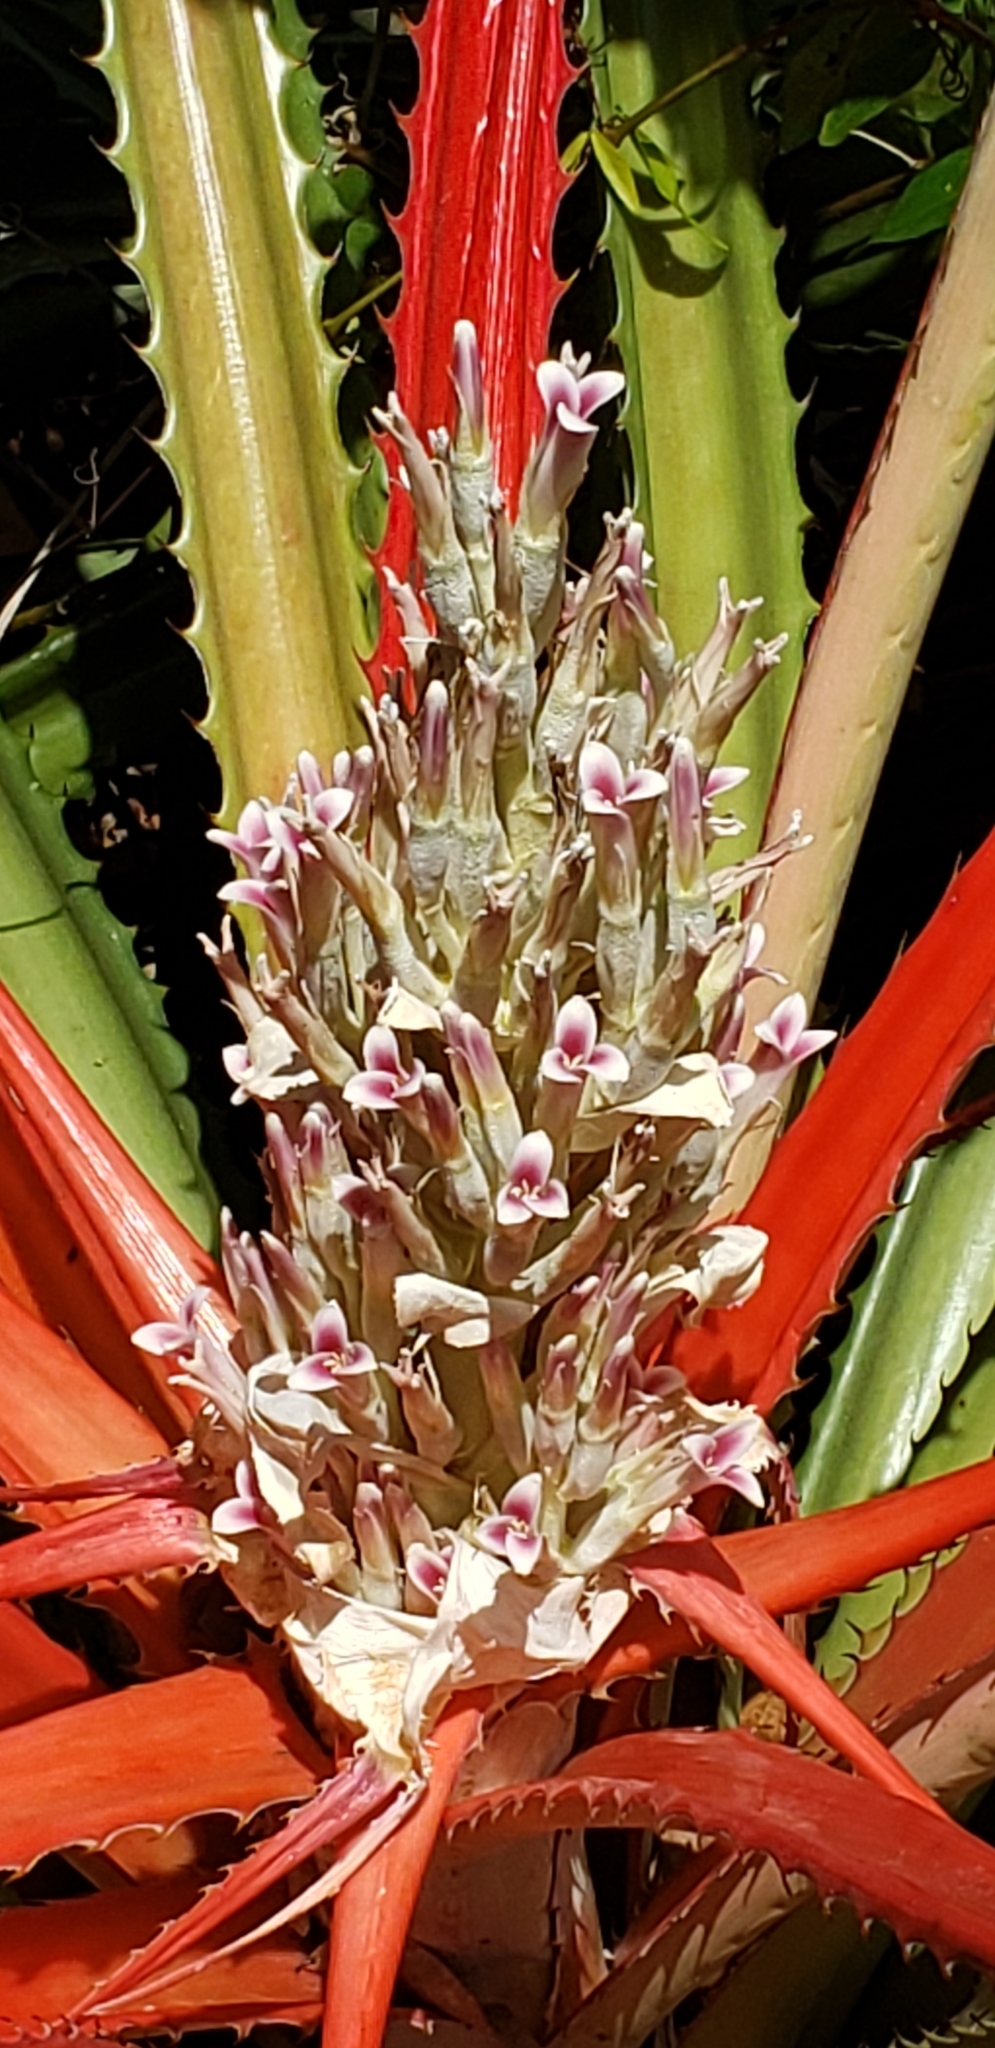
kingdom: Plantae
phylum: Tracheophyta
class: Liliopsida
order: Poales
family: Bromeliaceae
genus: Bromelia
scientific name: Bromelia pinguin
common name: Pinguin
